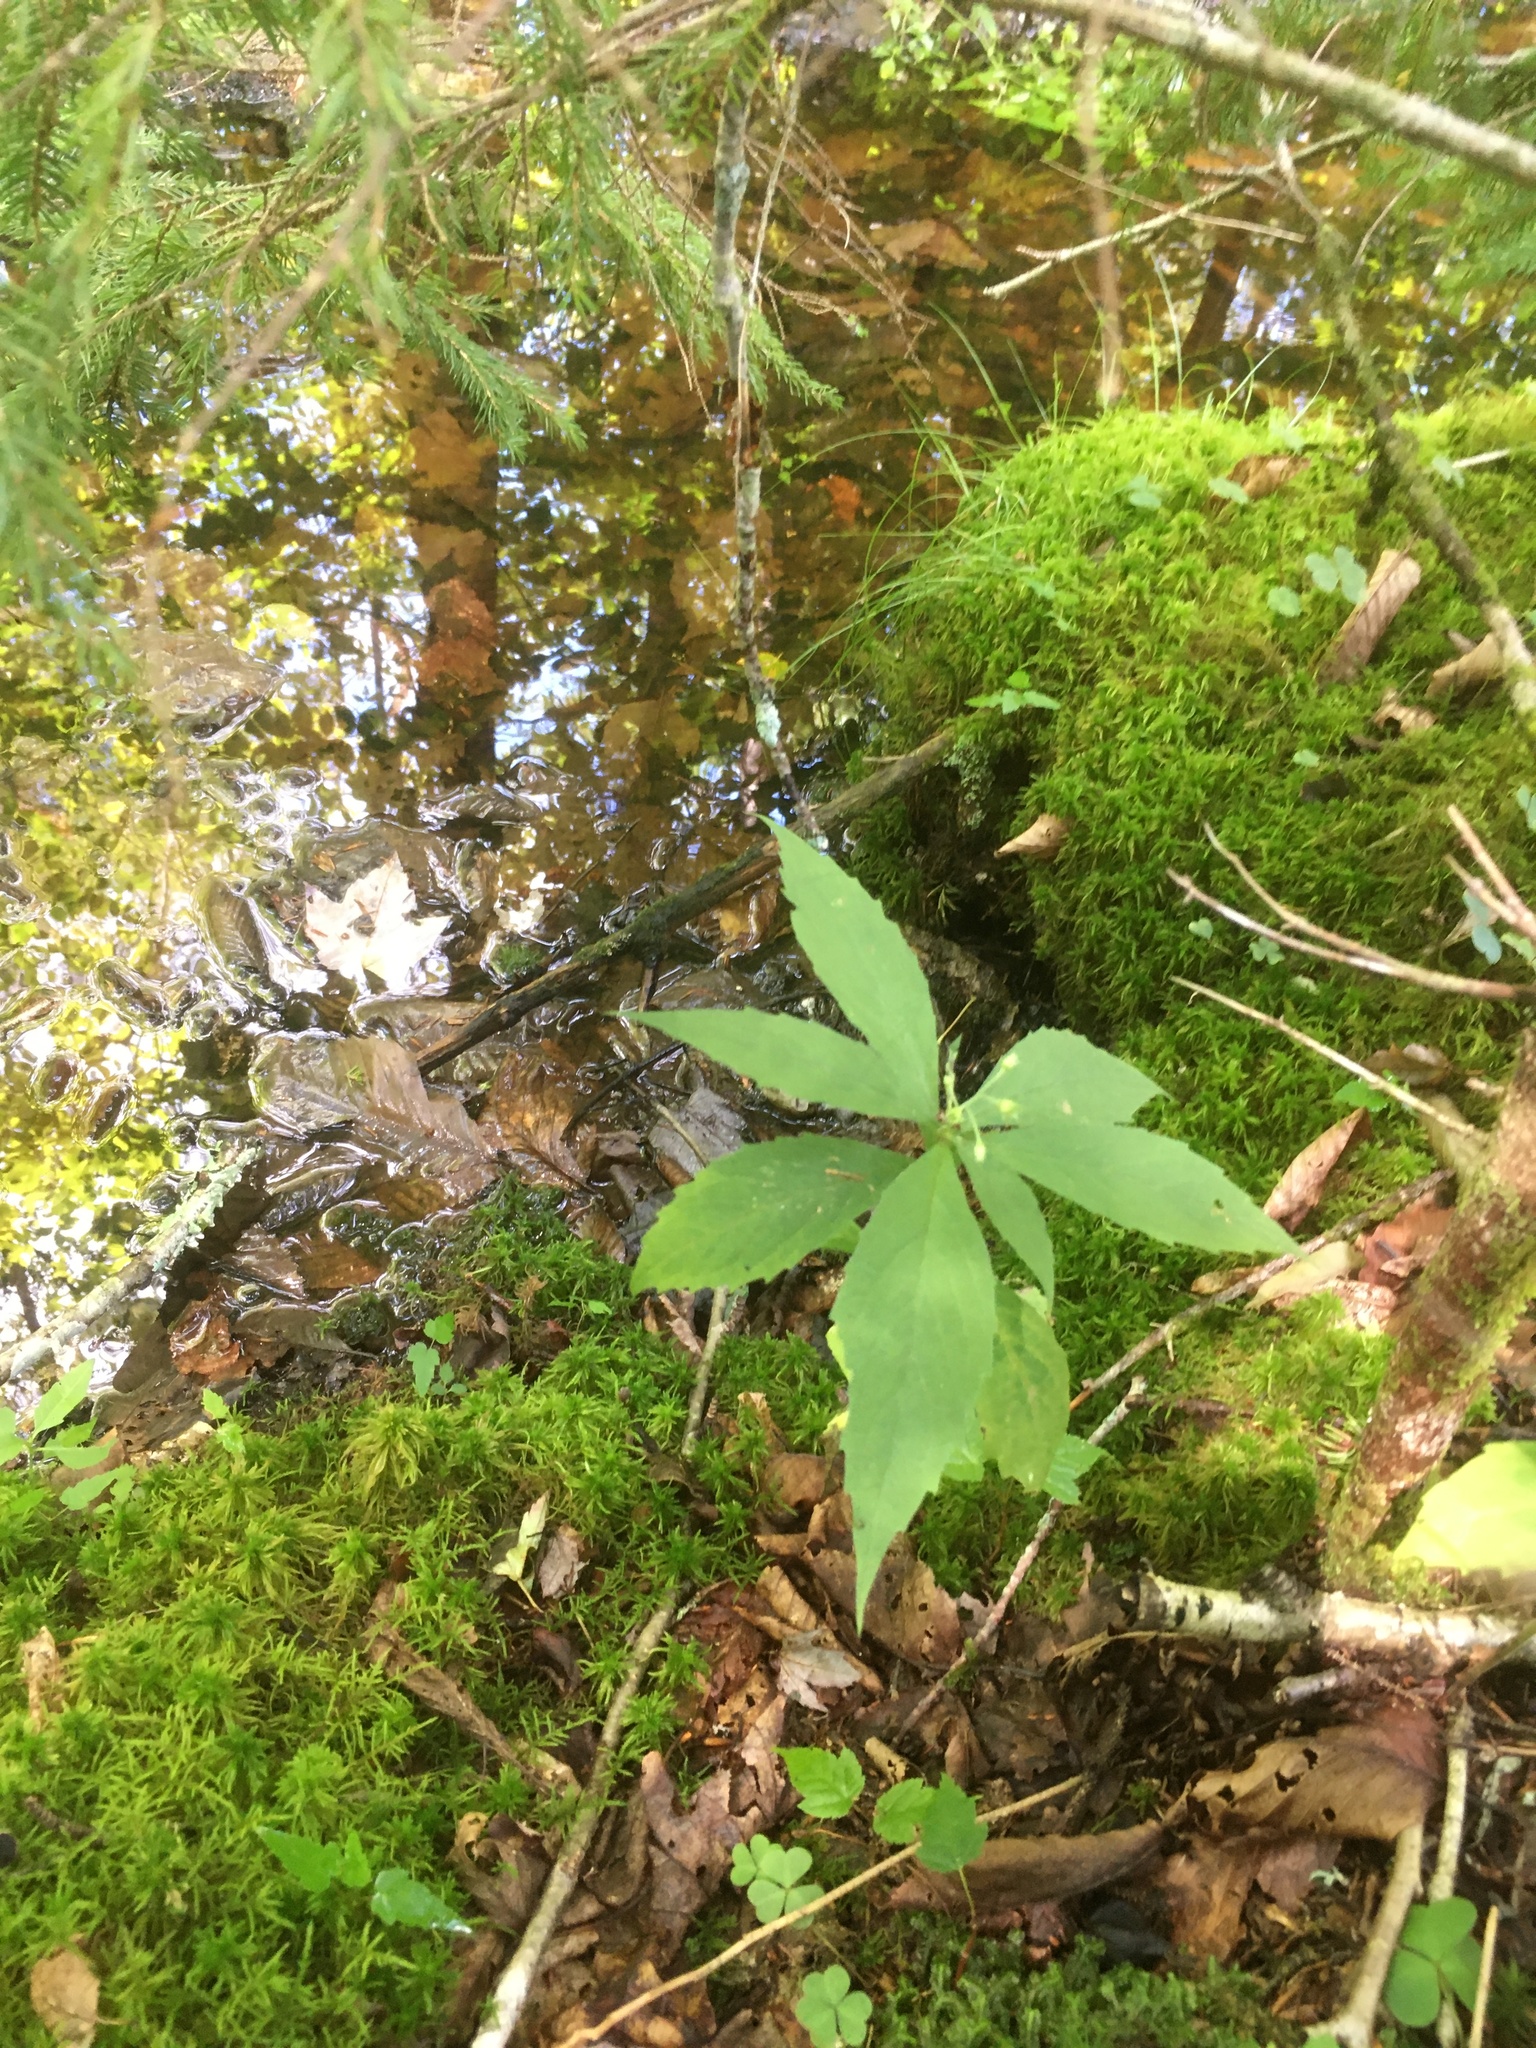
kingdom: Plantae
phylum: Tracheophyta
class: Magnoliopsida
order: Asterales
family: Asteraceae
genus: Oclemena
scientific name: Oclemena acuminata
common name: Mountain aster
